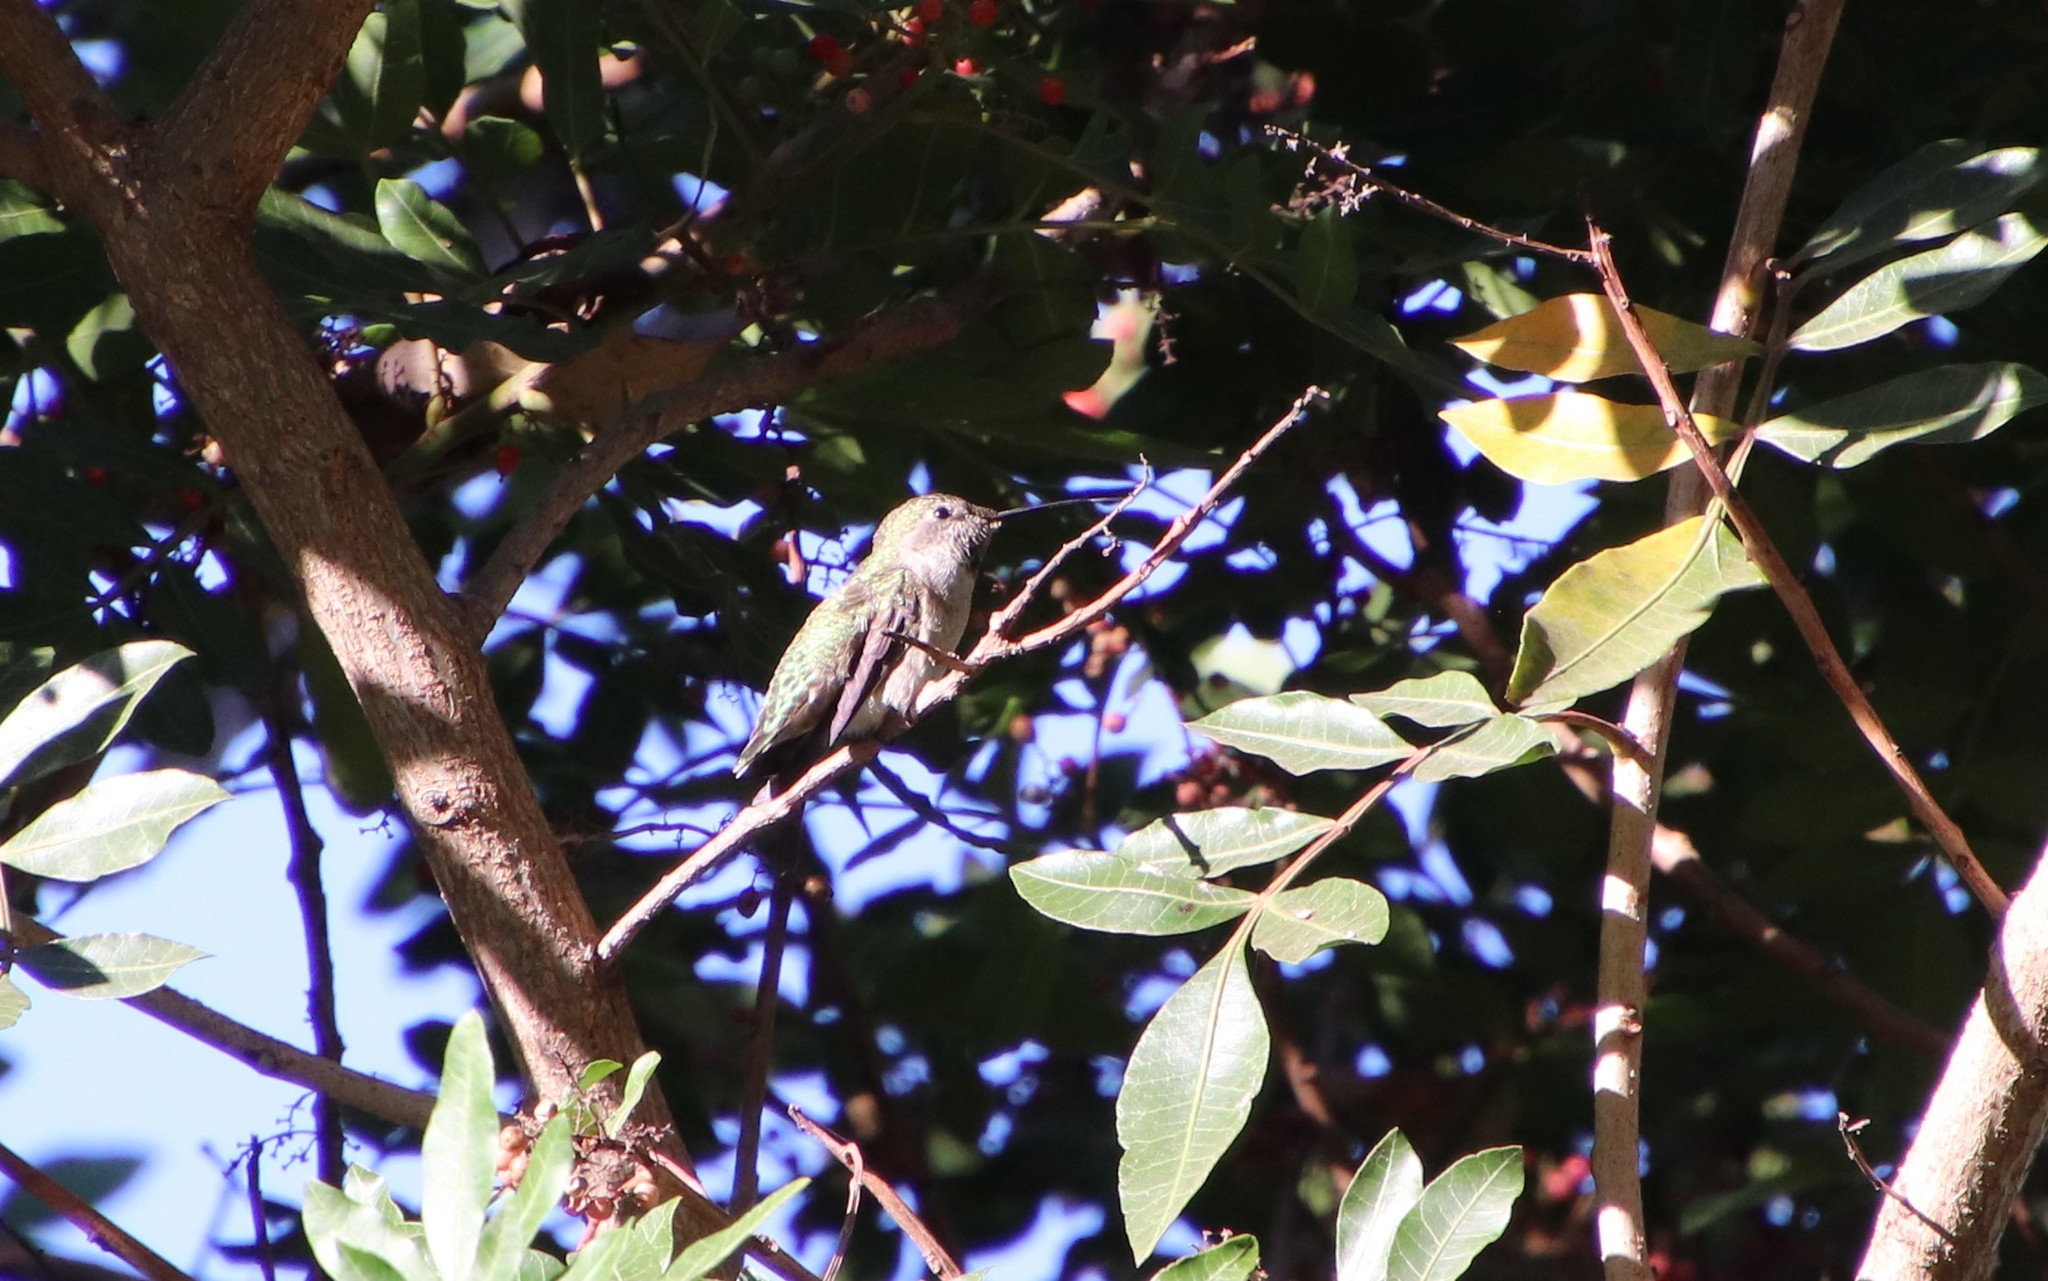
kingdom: Animalia
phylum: Chordata
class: Aves
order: Apodiformes
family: Trochilidae
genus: Calypte
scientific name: Calypte anna
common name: Anna's hummingbird
